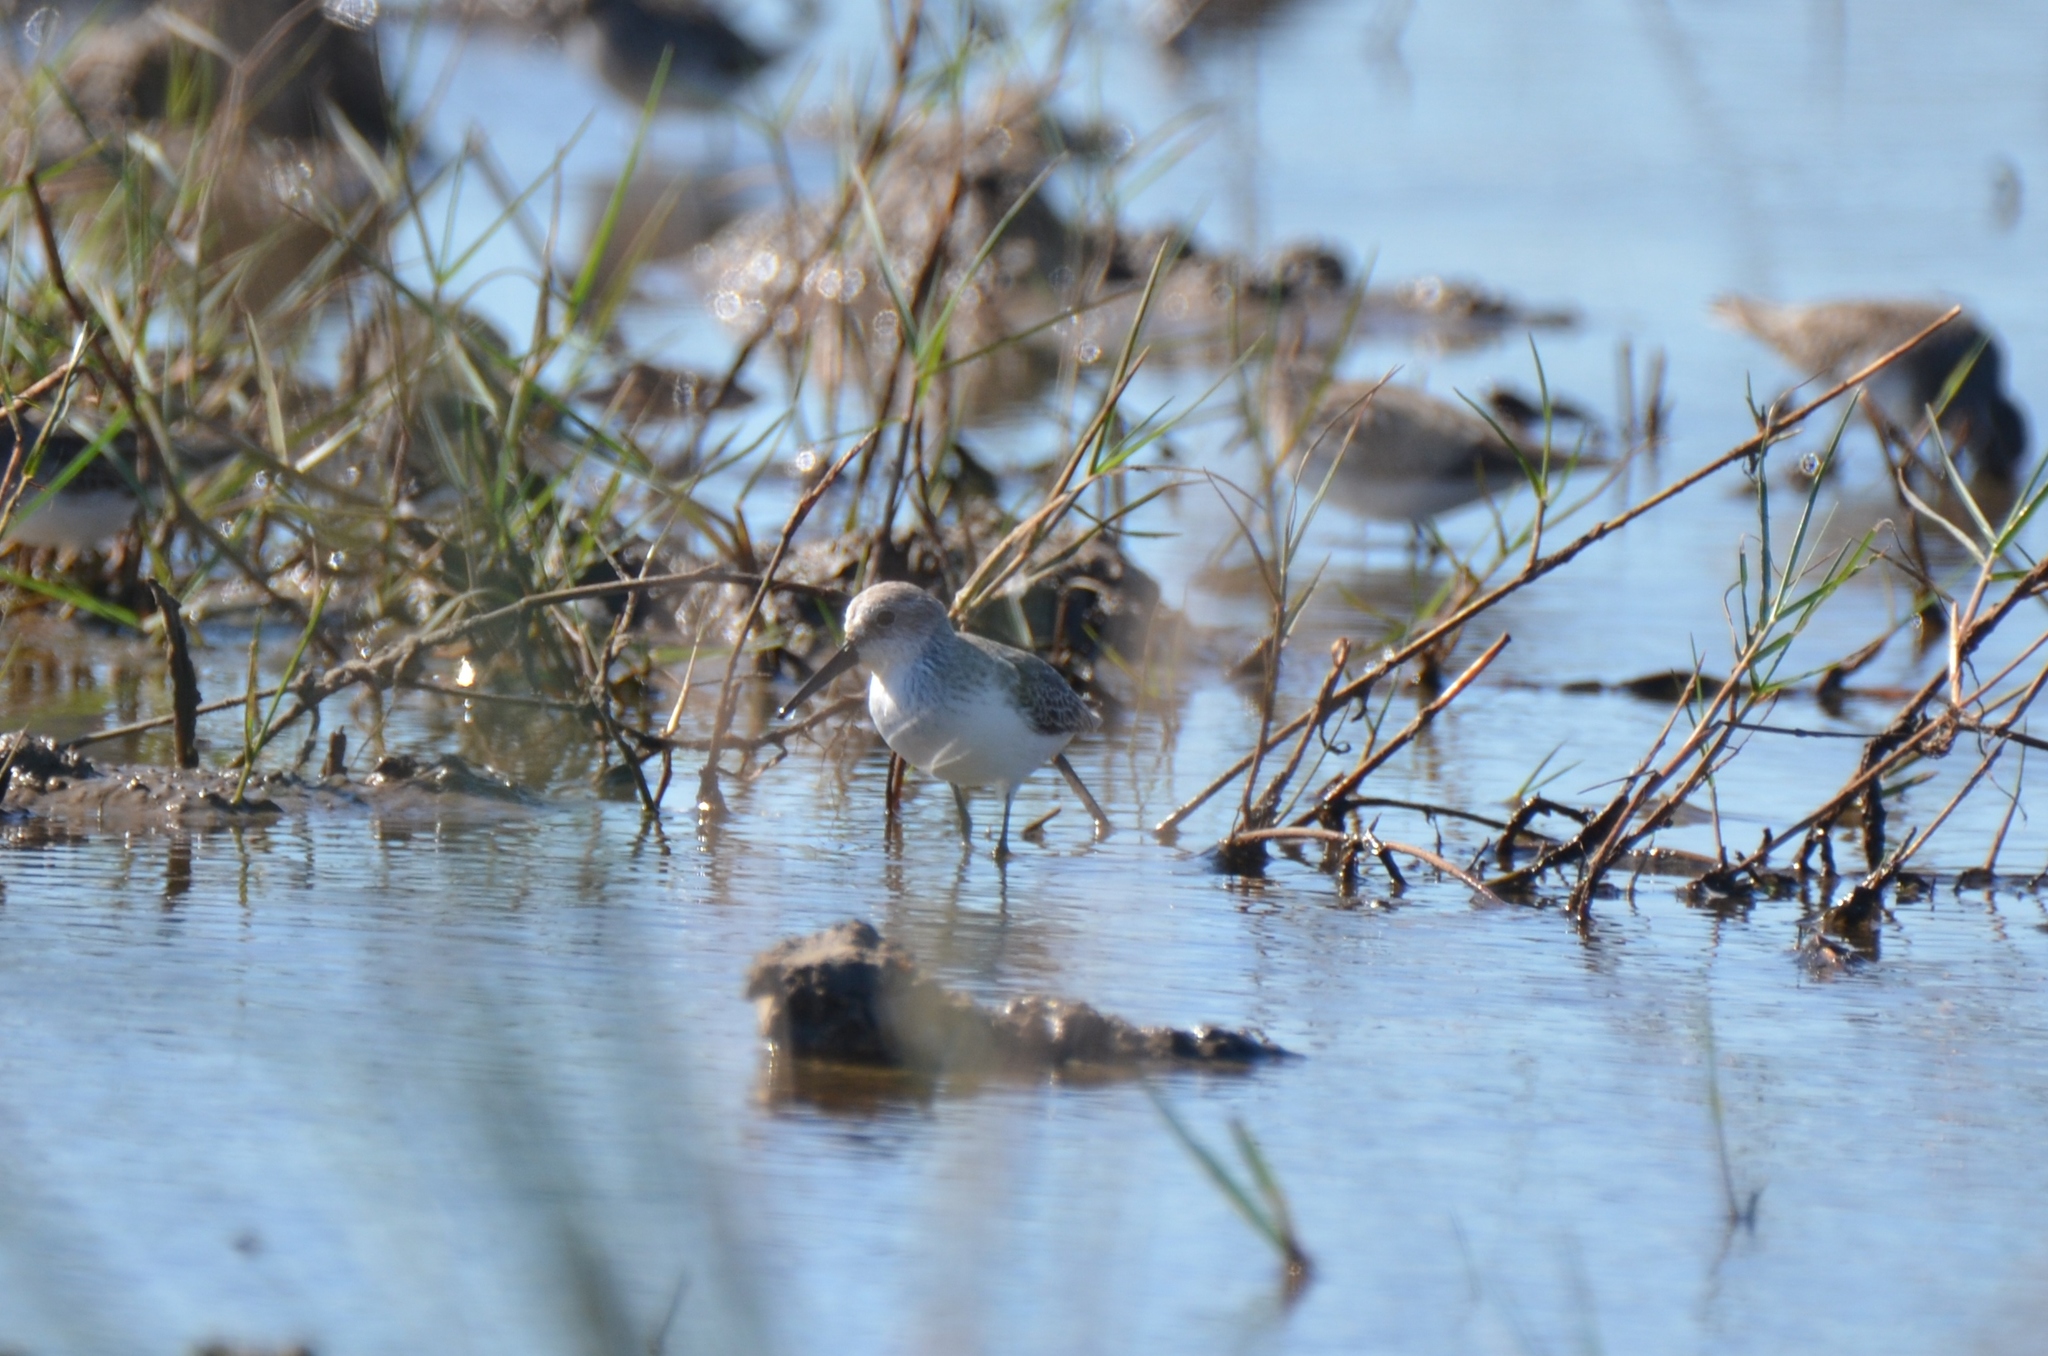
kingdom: Animalia
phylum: Chordata
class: Aves
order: Charadriiformes
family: Scolopacidae
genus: Calidris
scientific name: Calidris mauri
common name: Western sandpiper
